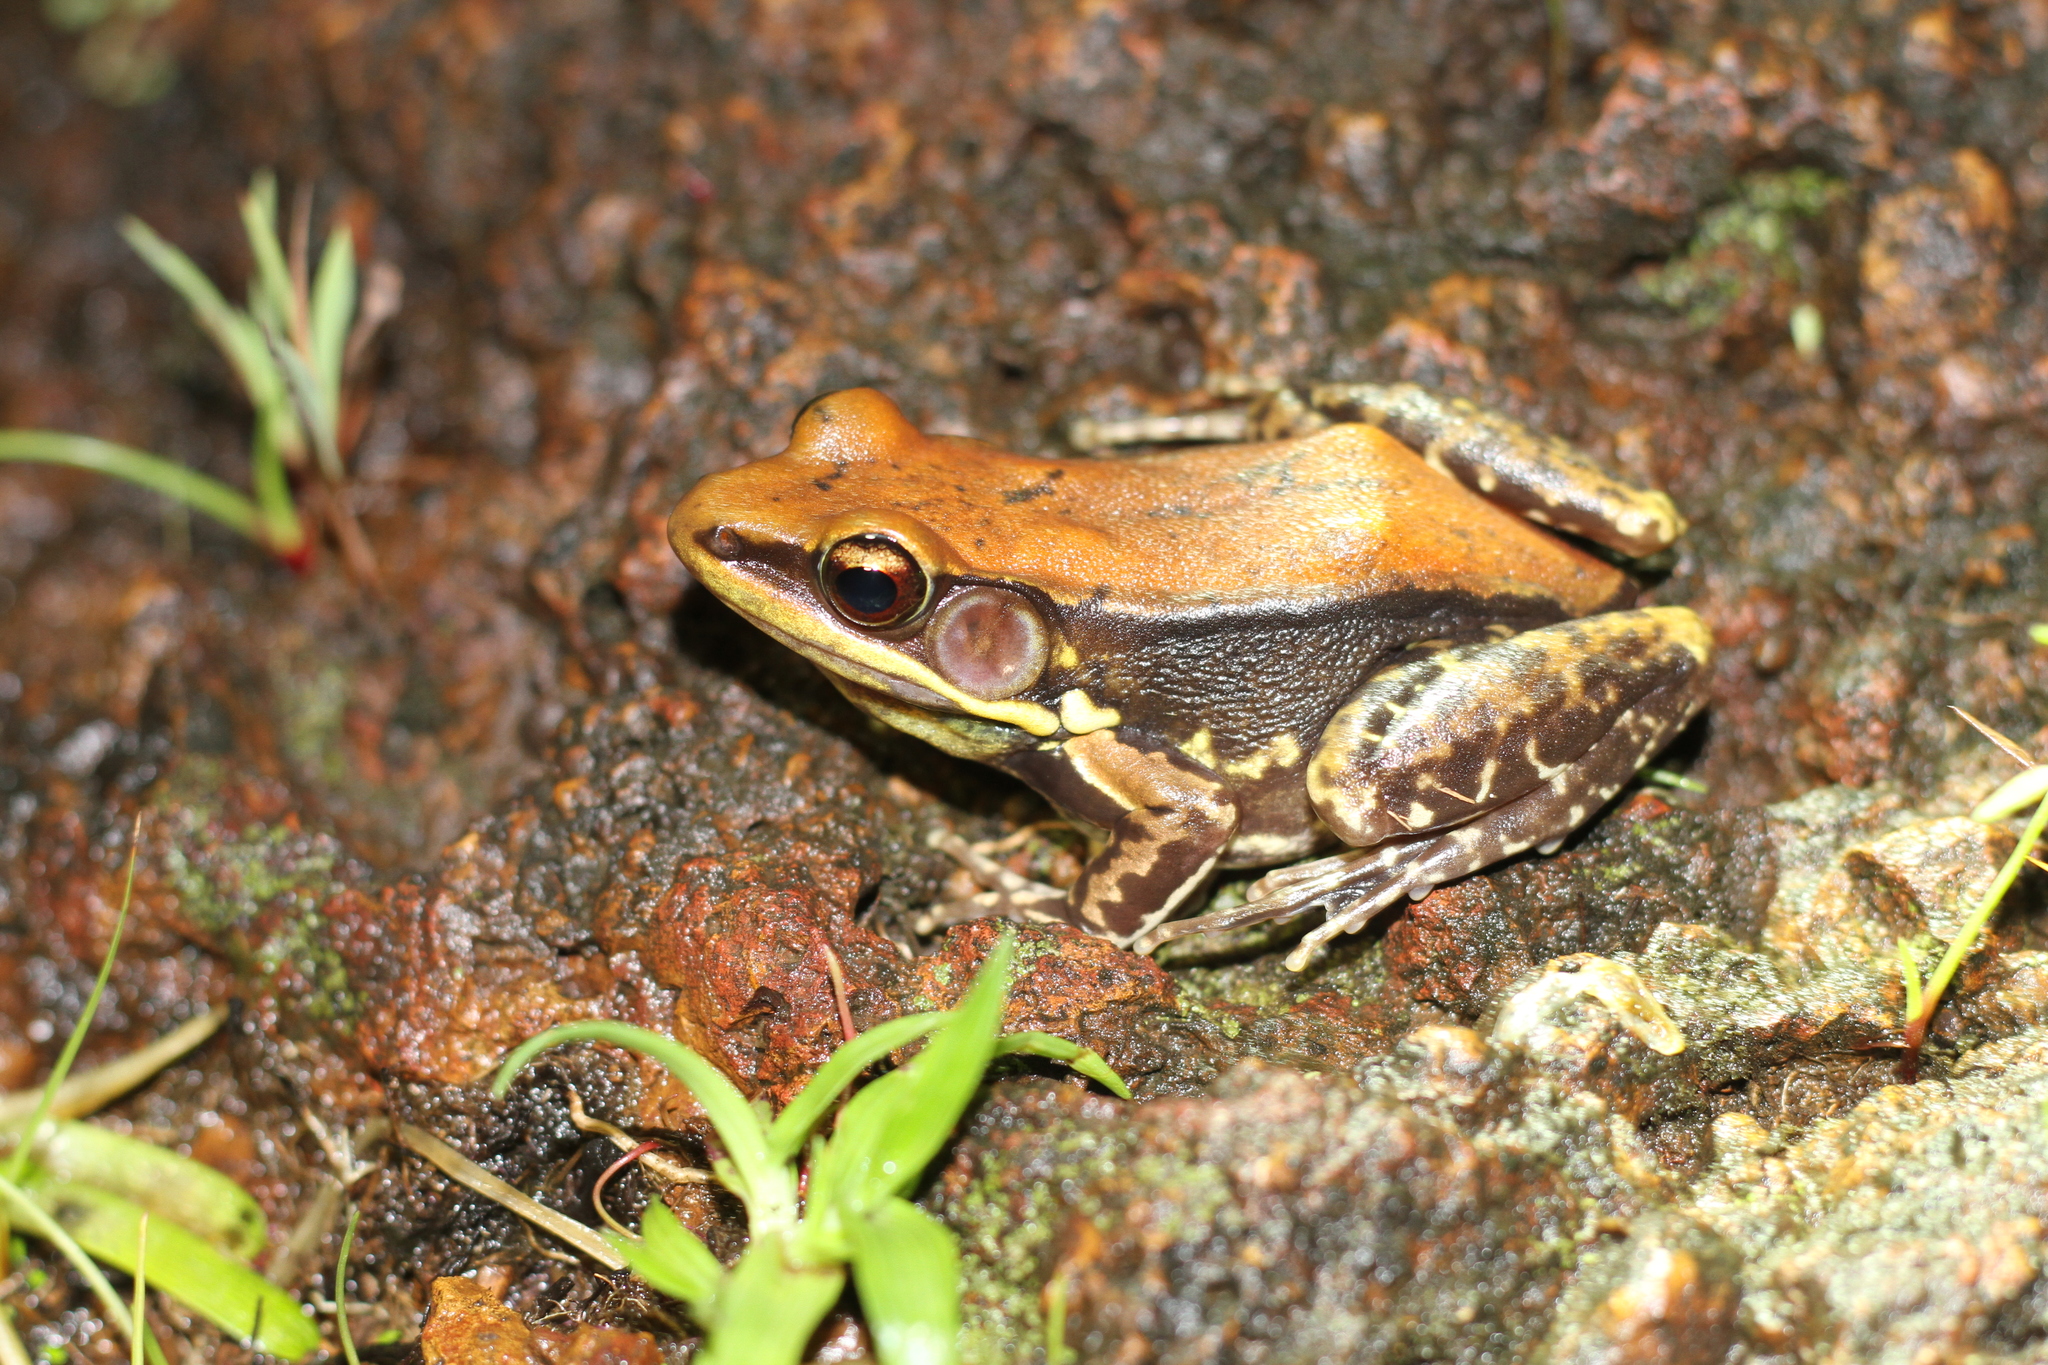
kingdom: Animalia
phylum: Chordata
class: Amphibia
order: Anura
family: Ranidae
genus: Hydrophylax
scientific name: Hydrophylax malabaricus
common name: Malabar fungoid frog
